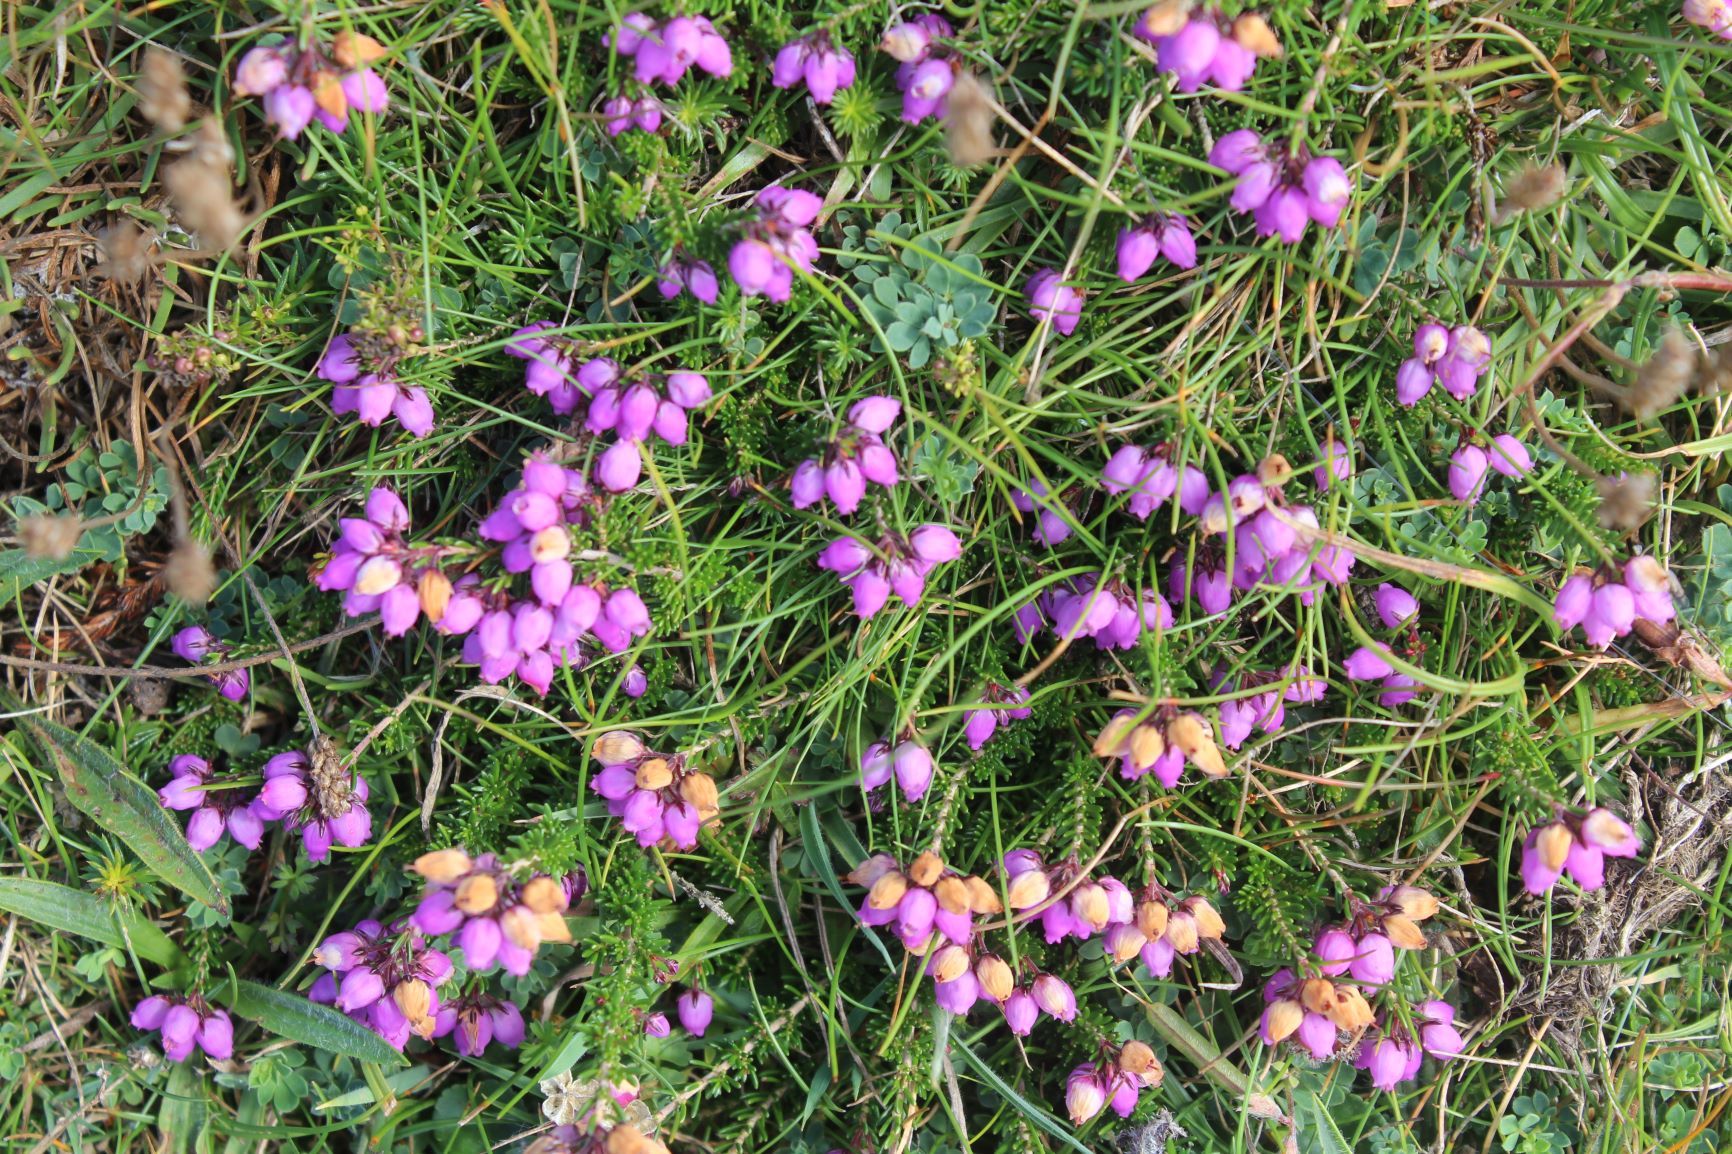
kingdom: Plantae
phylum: Tracheophyta
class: Magnoliopsida
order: Ericales
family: Ericaceae
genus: Erica
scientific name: Erica cinerea
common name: Bell heather
